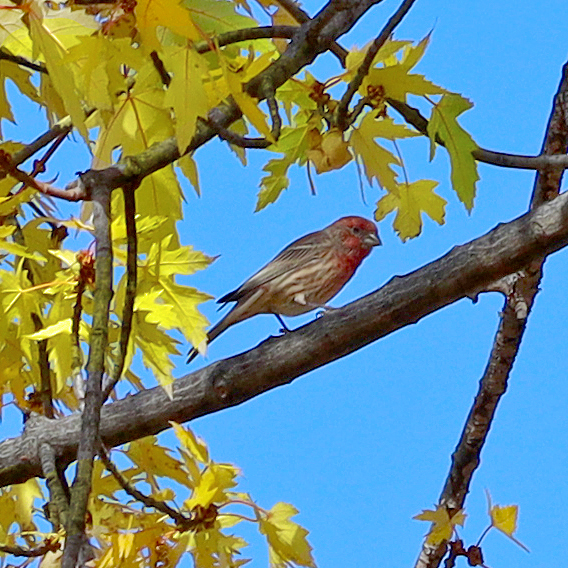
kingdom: Animalia
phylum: Chordata
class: Aves
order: Passeriformes
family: Fringillidae
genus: Haemorhous
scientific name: Haemorhous mexicanus
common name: House finch
